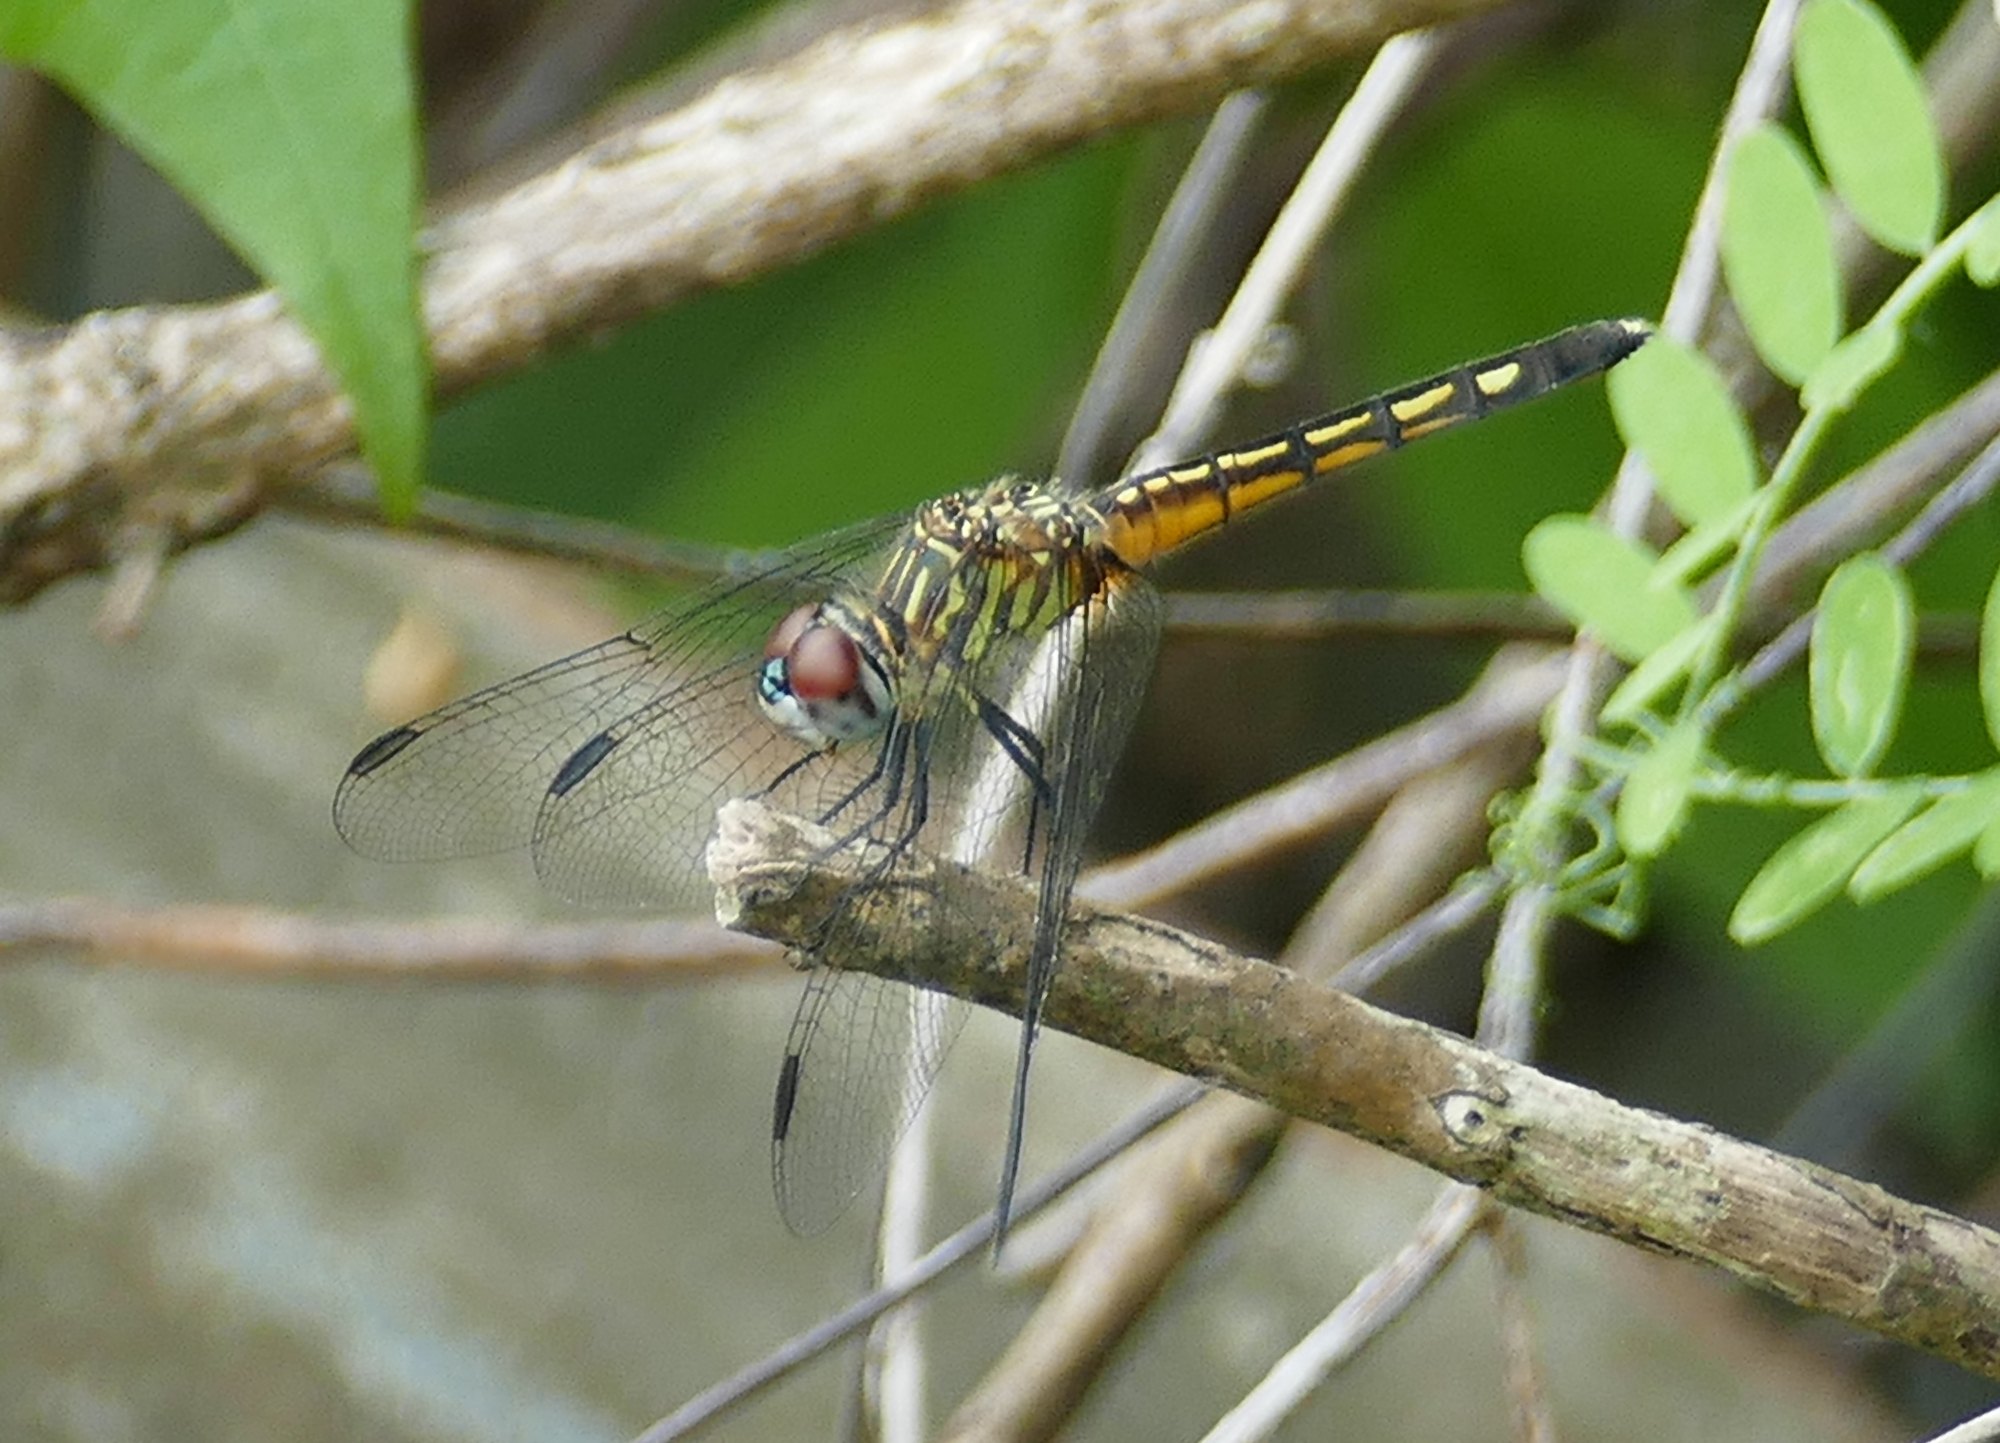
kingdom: Animalia
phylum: Arthropoda
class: Insecta
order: Odonata
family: Libellulidae
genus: Pachydiplax
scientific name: Pachydiplax longipennis
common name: Blue dasher
